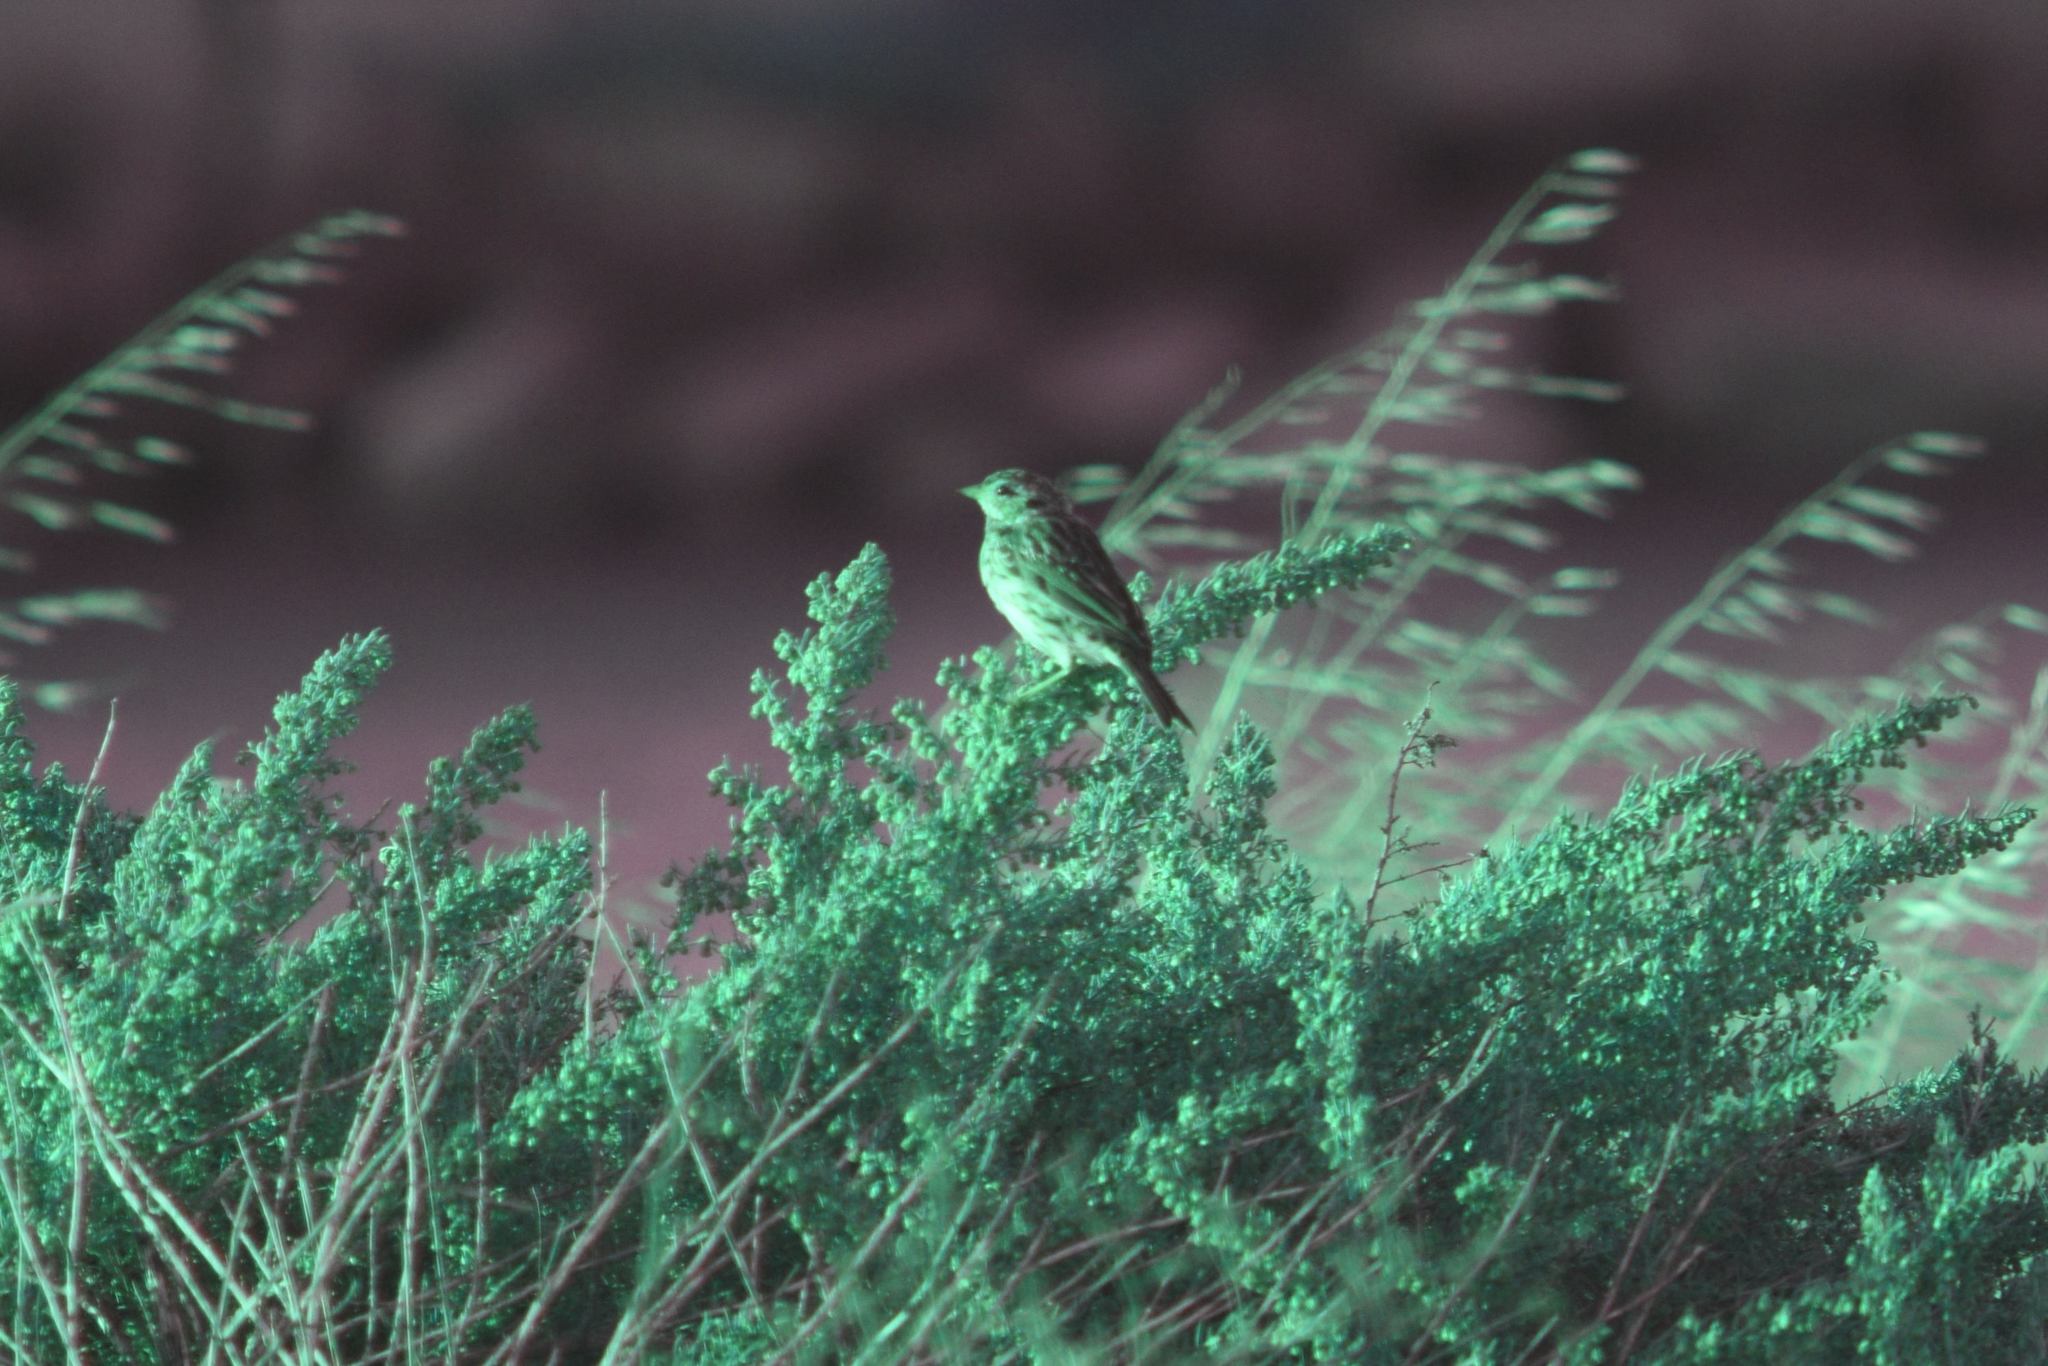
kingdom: Animalia
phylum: Chordata
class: Aves
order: Passeriformes
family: Passerellidae
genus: Passerculus
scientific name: Passerculus sandwichensis
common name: Savannah sparrow
